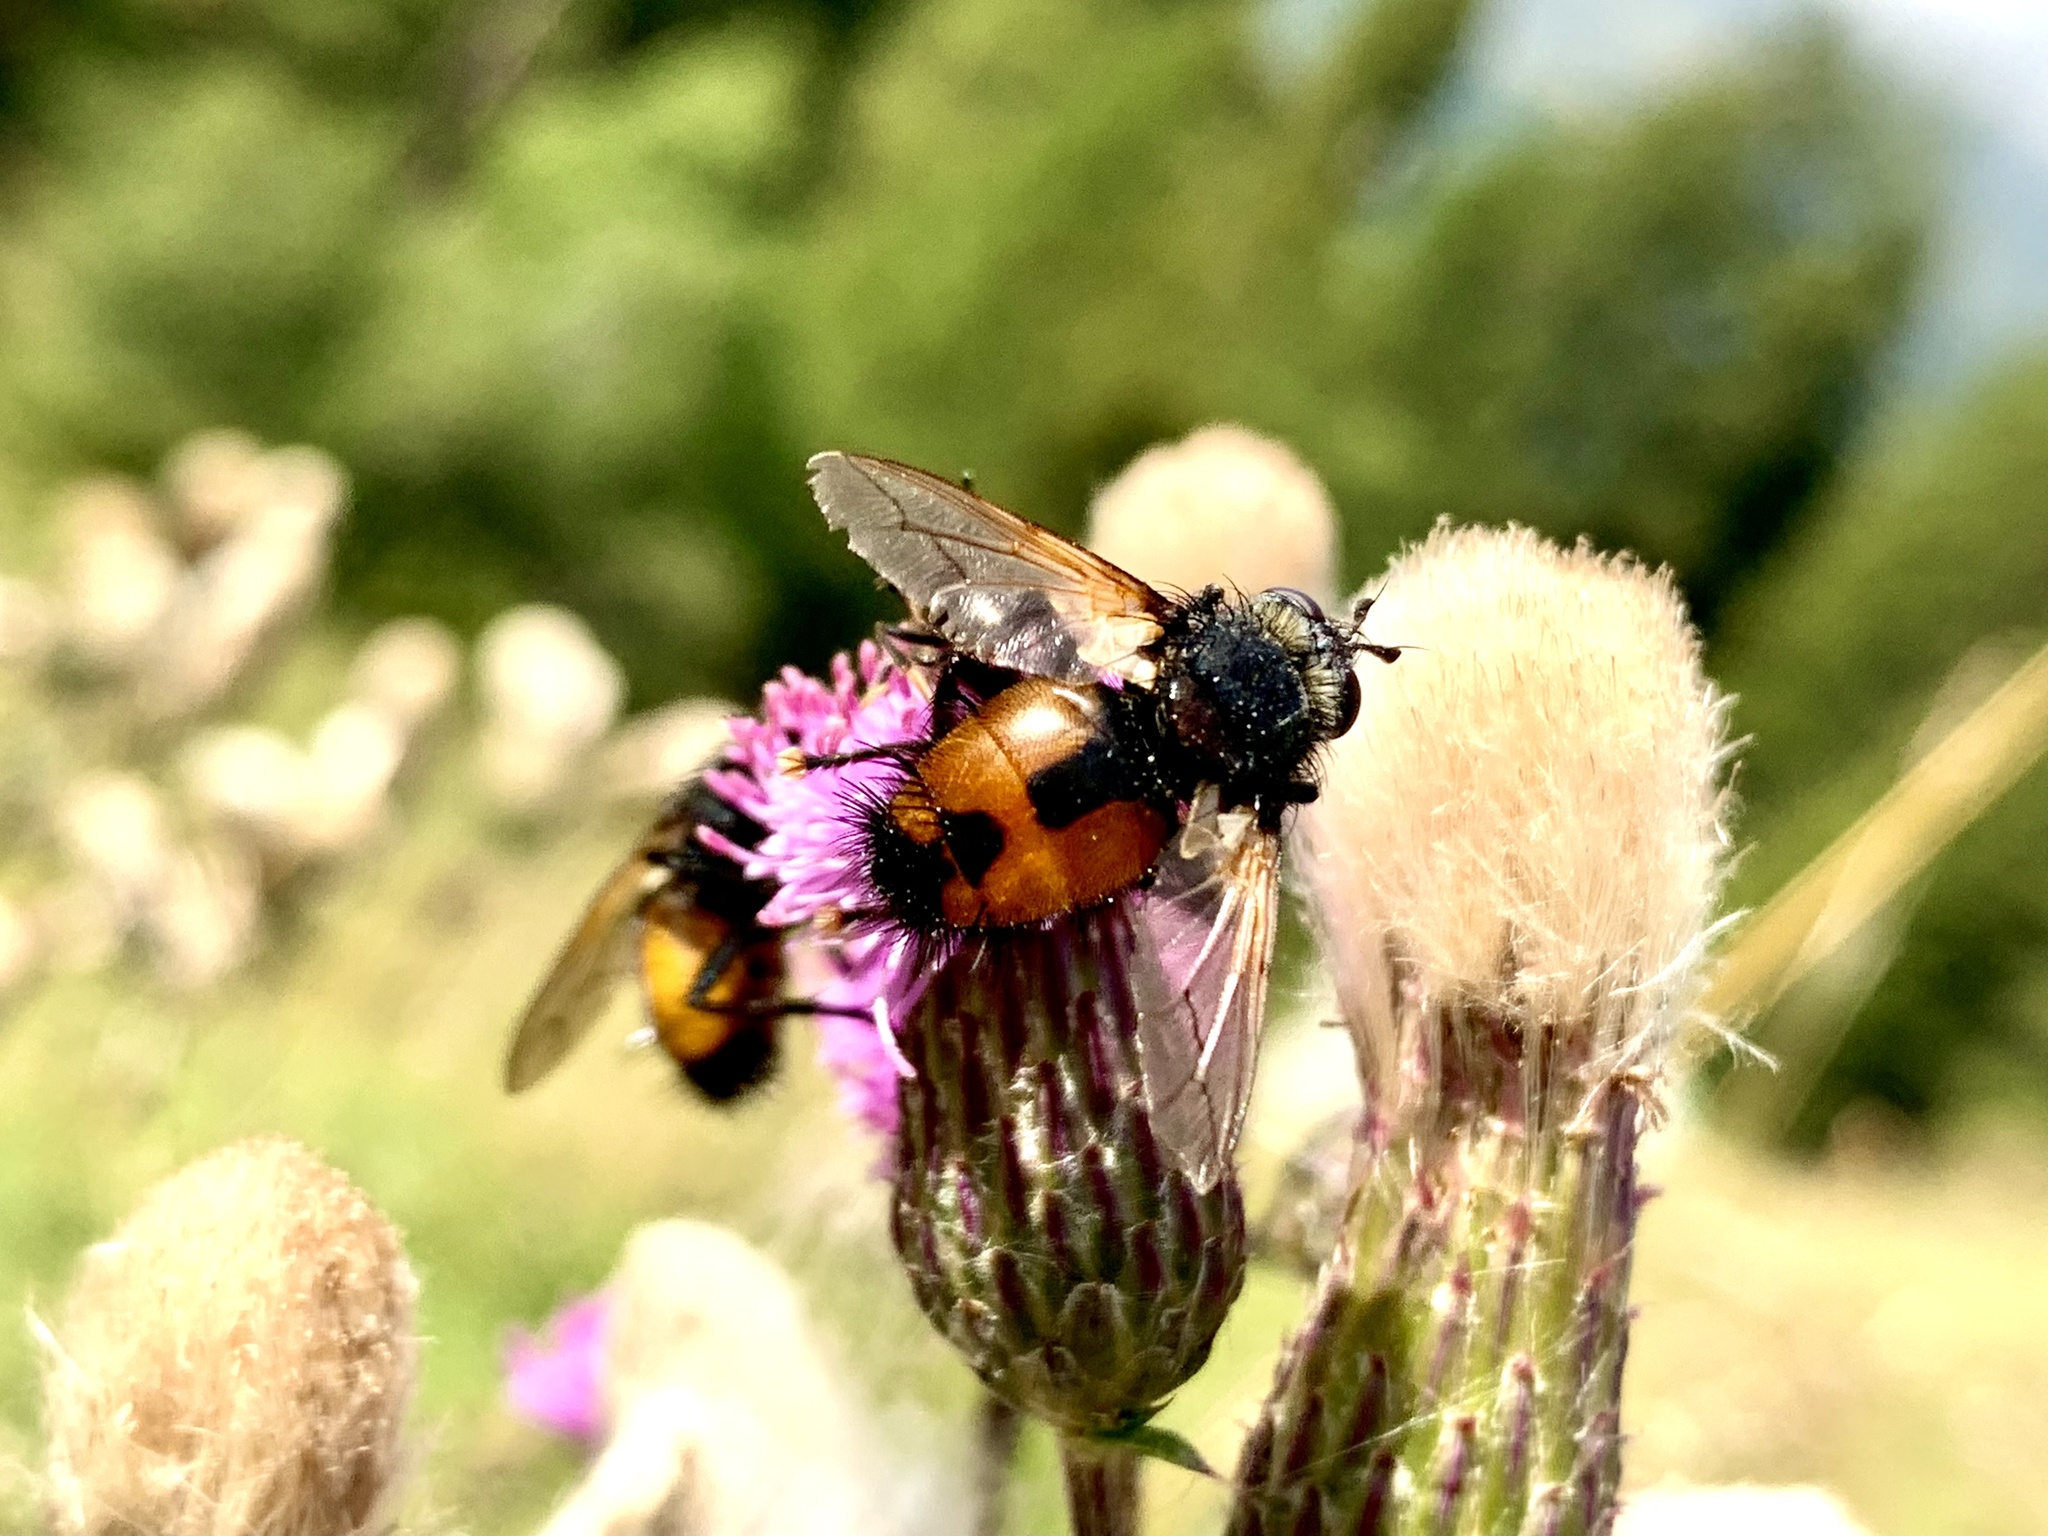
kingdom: Animalia
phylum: Arthropoda
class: Insecta
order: Diptera
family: Tachinidae
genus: Nowickia
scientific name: Nowickia ferox
